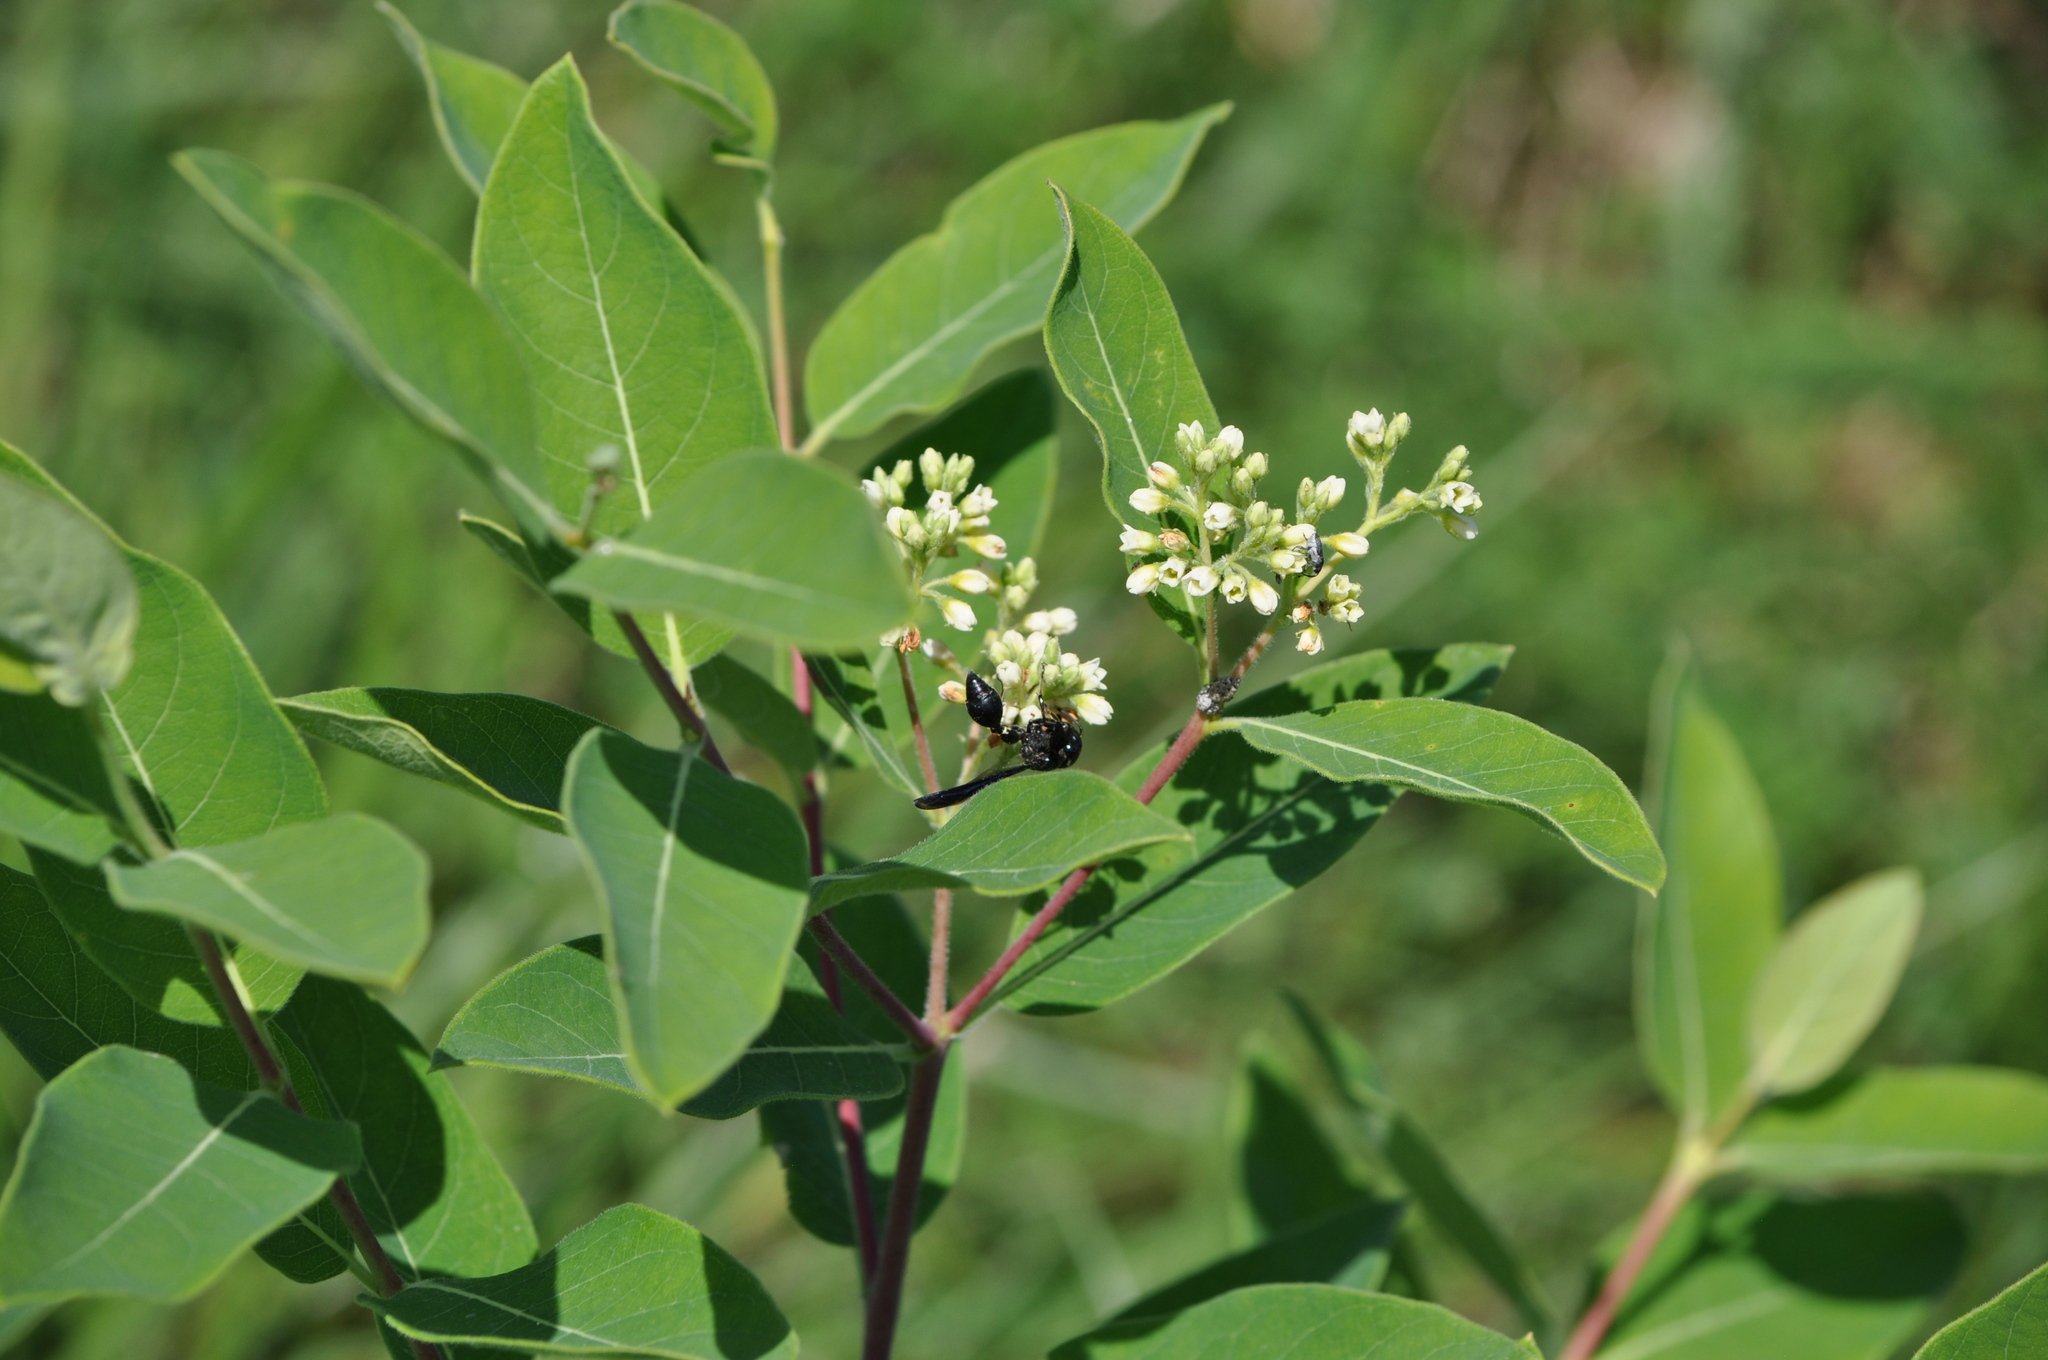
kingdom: Animalia
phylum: Arthropoda
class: Insecta
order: Hymenoptera
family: Eumenidae
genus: Zethus
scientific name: Zethus spinipes
